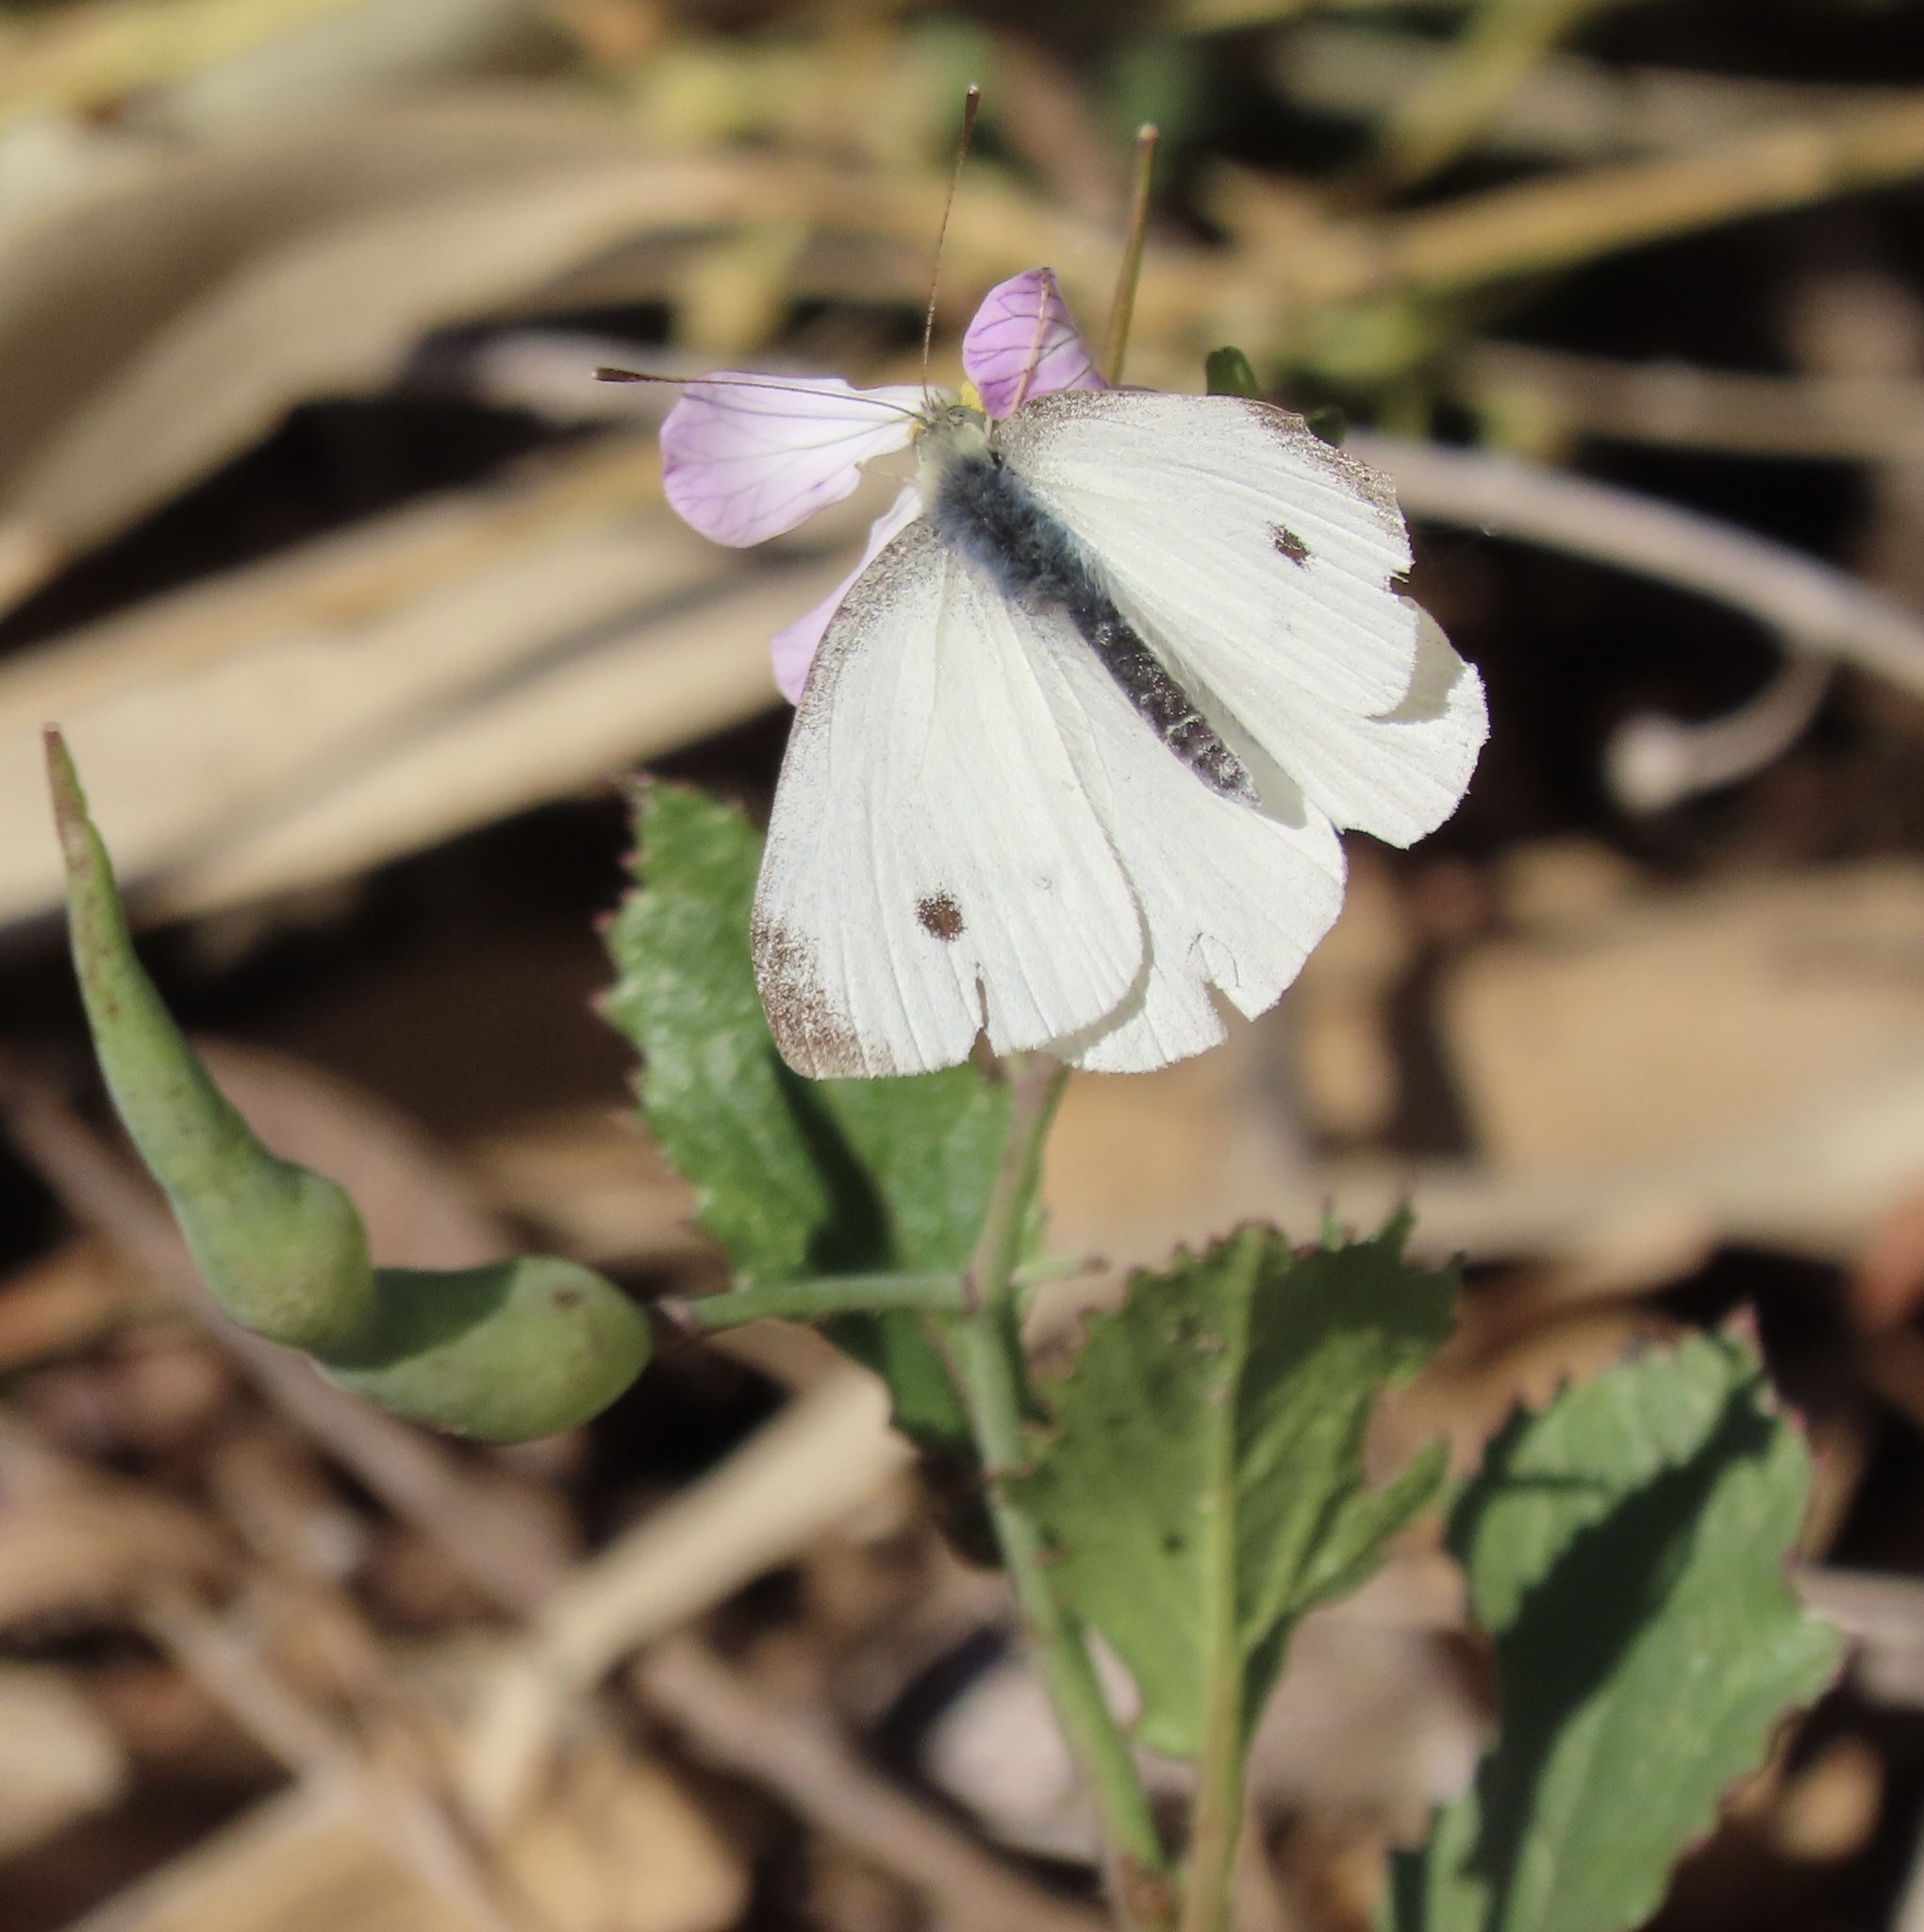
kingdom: Animalia
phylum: Arthropoda
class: Insecta
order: Lepidoptera
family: Pieridae
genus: Pieris
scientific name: Pieris rapae
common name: Small white
